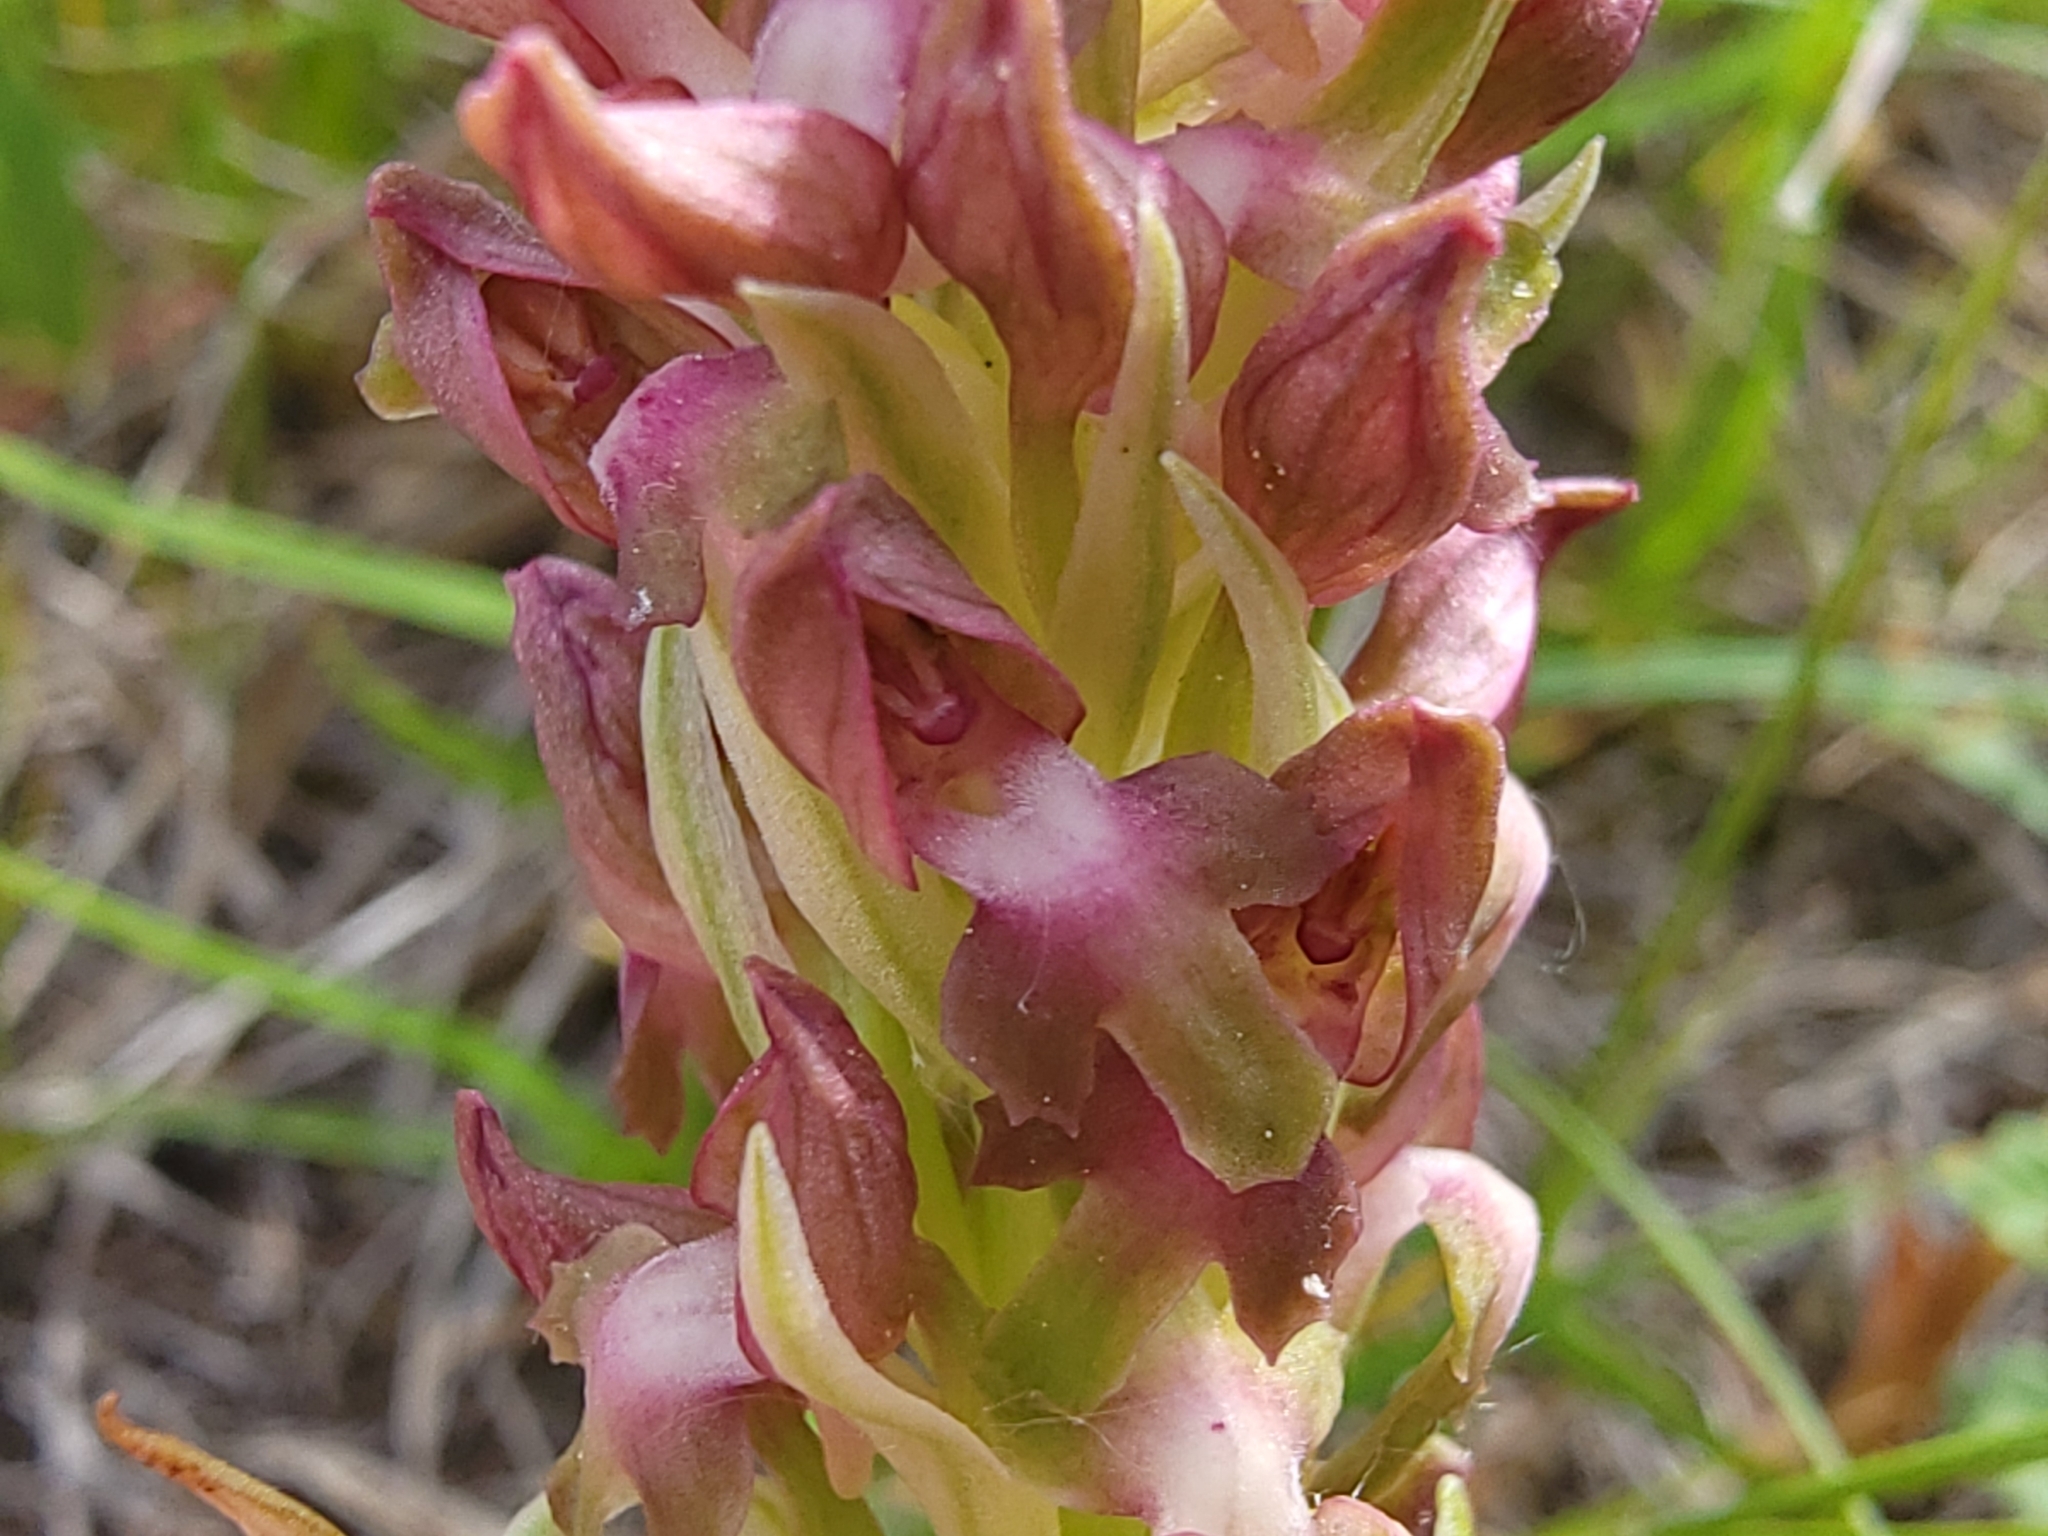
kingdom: Plantae
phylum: Tracheophyta
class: Liliopsida
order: Asparagales
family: Orchidaceae
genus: Anacamptis
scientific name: Anacamptis coriophora
